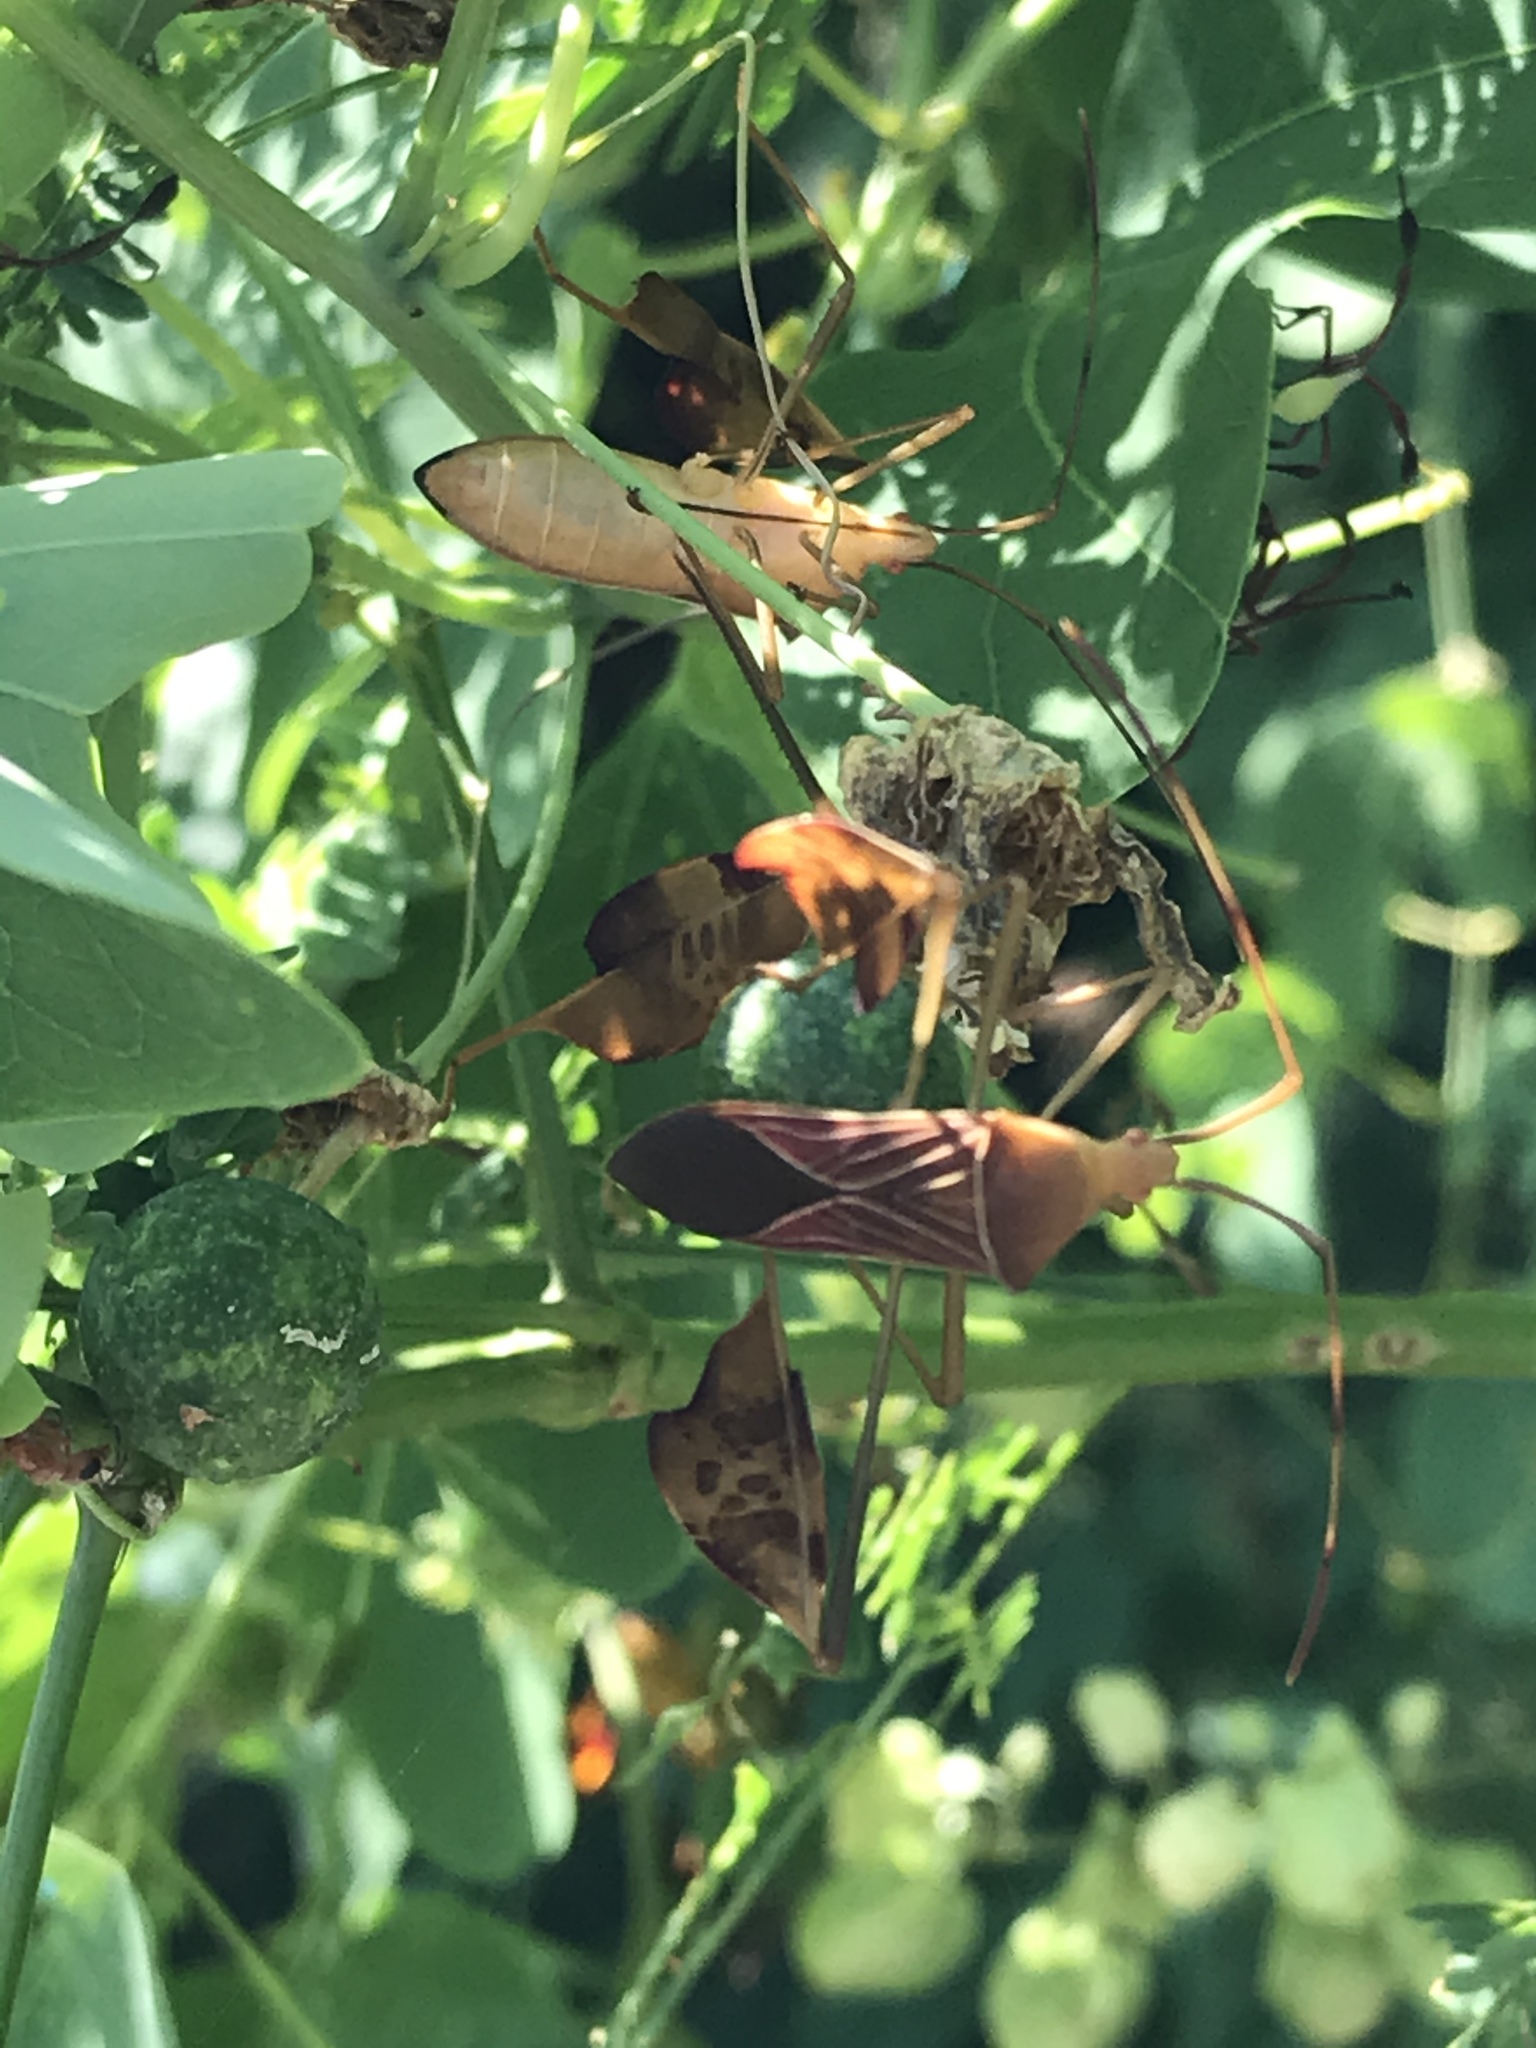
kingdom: Animalia
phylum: Arthropoda
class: Insecta
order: Hemiptera
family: Coreidae
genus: Bitta
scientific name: Bitta
